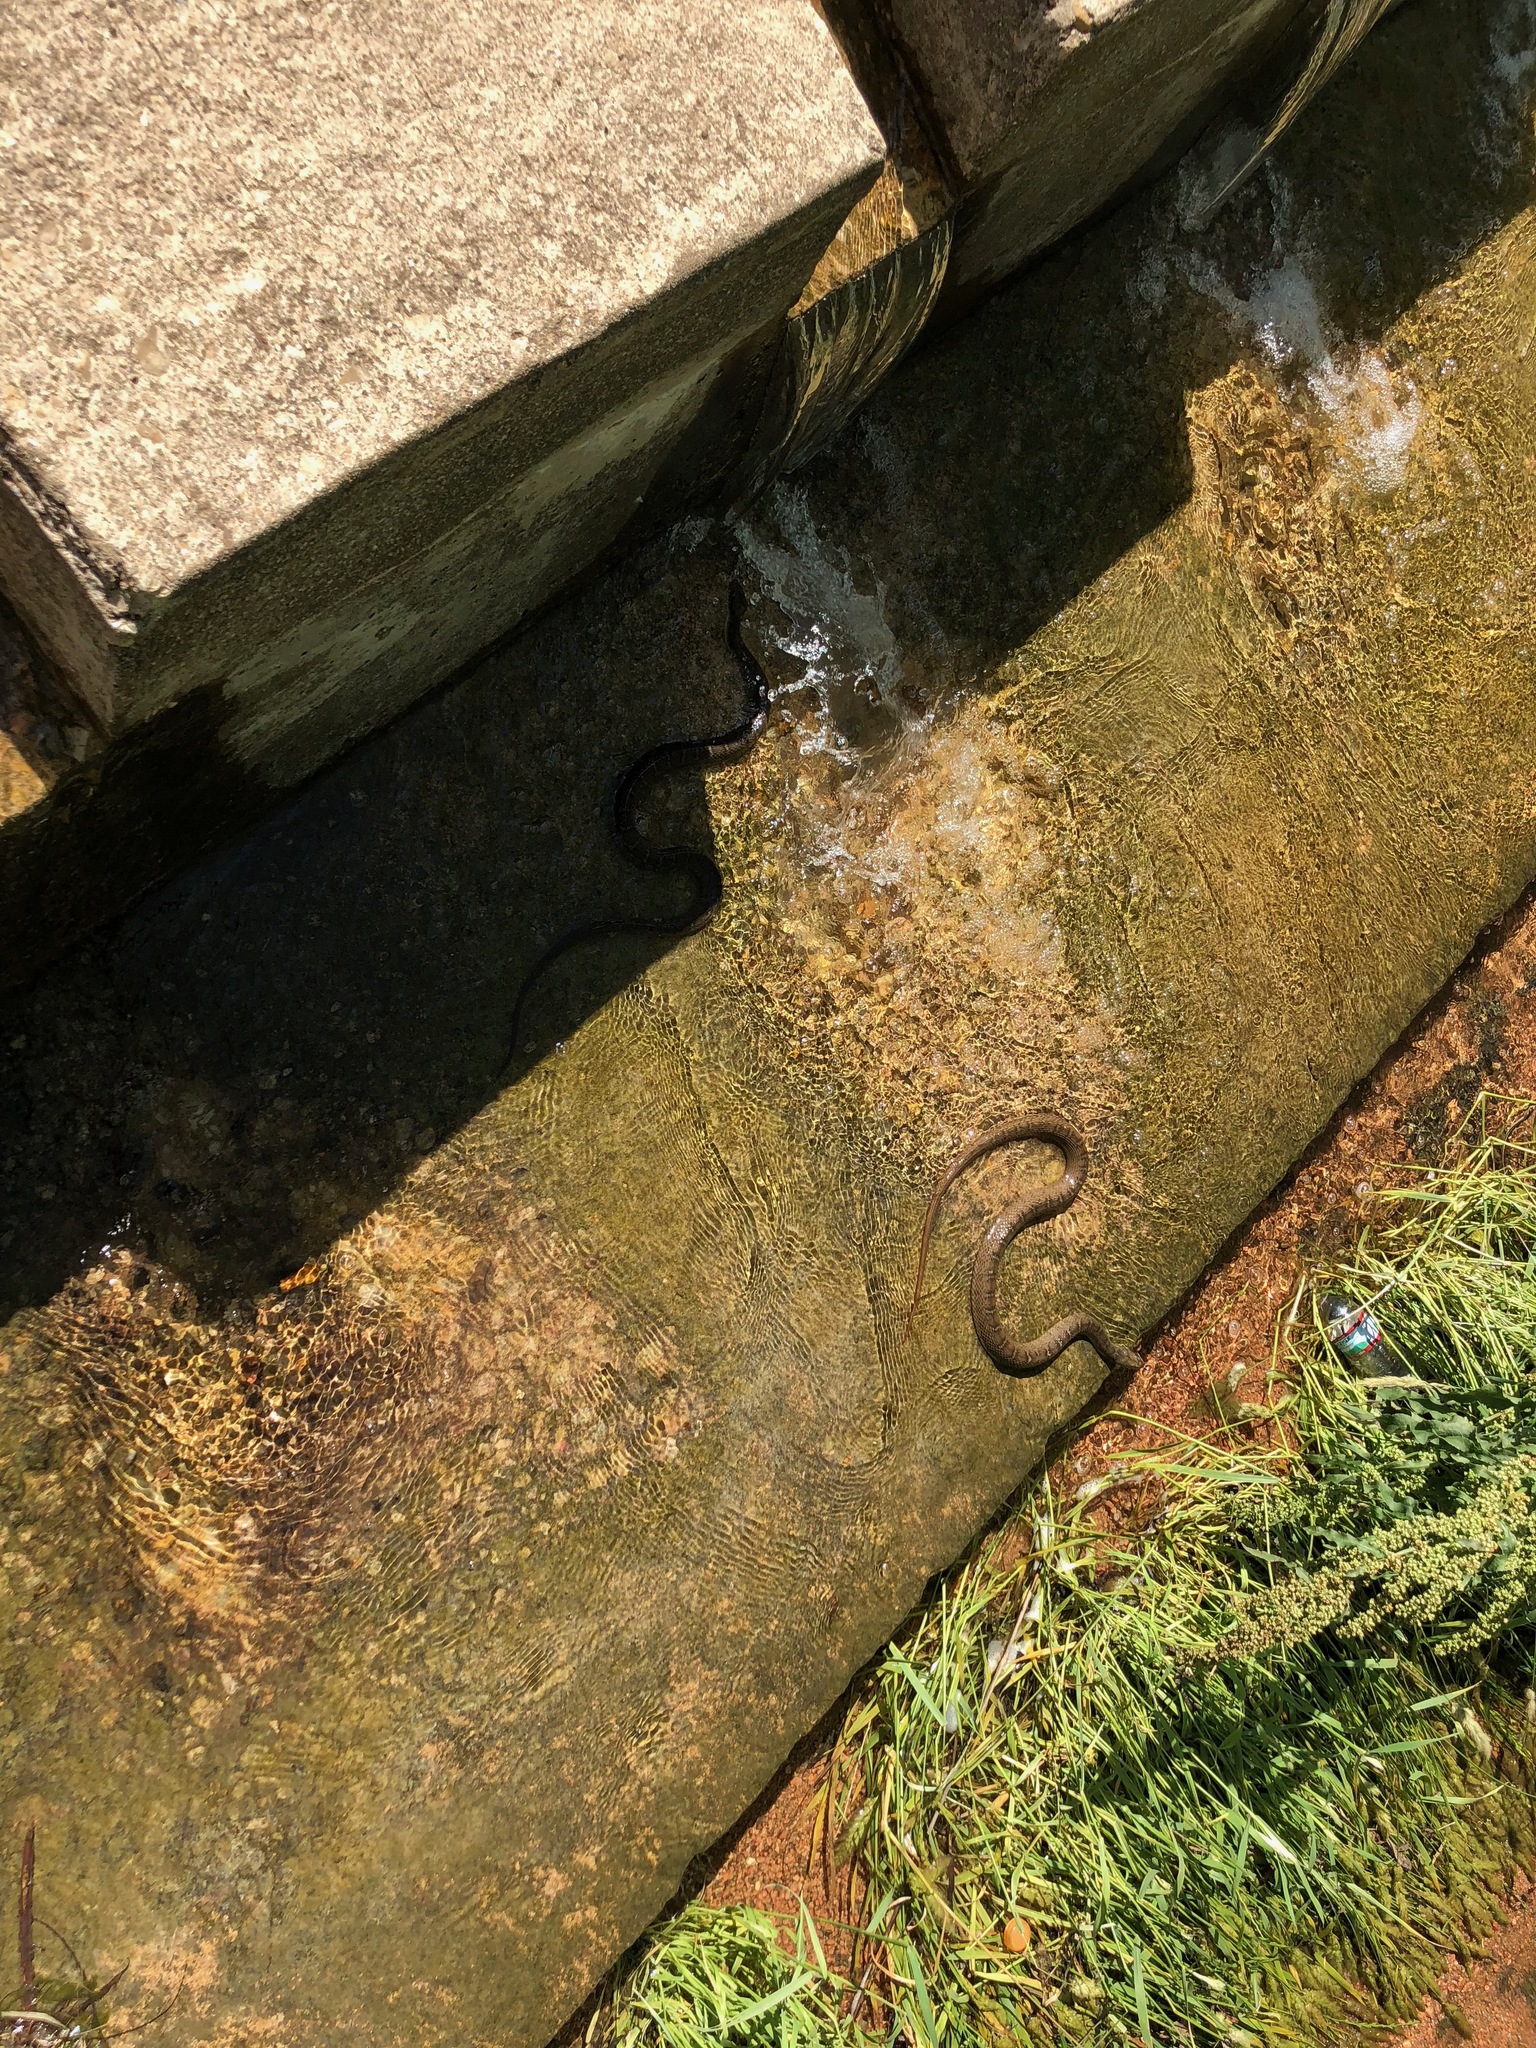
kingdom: Animalia
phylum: Chordata
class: Squamata
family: Colubridae
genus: Nerodia
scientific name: Nerodia erythrogaster
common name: Plainbelly water snake
